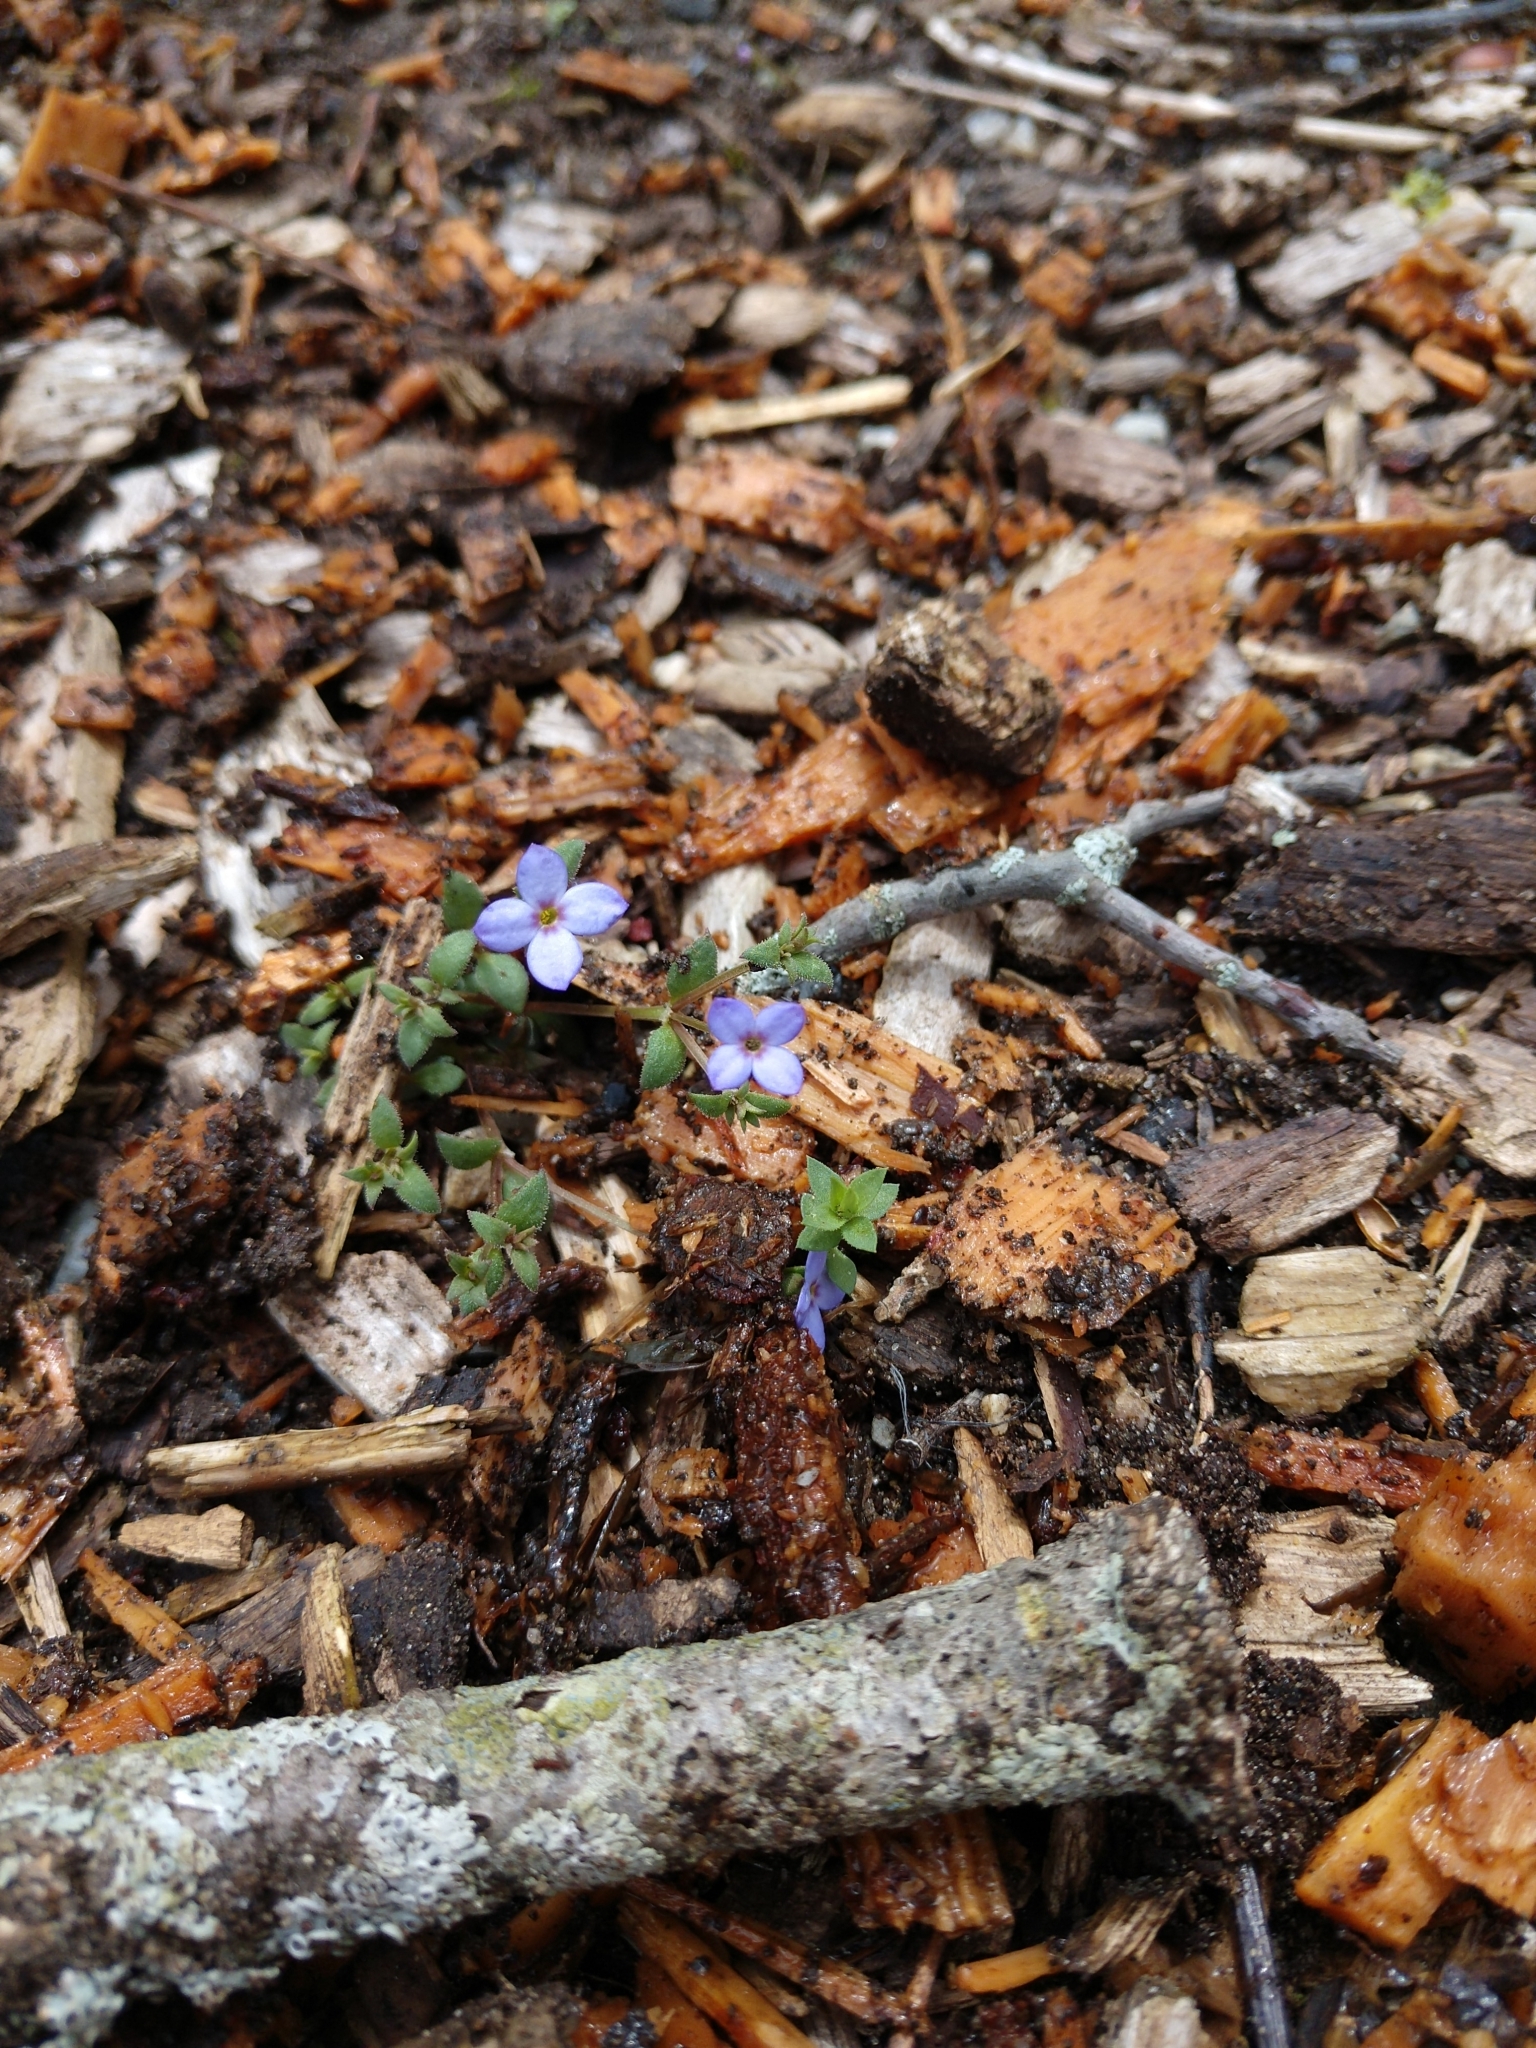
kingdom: Plantae
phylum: Tracheophyta
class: Magnoliopsida
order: Gentianales
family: Rubiaceae
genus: Houstonia
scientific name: Houstonia pusilla
